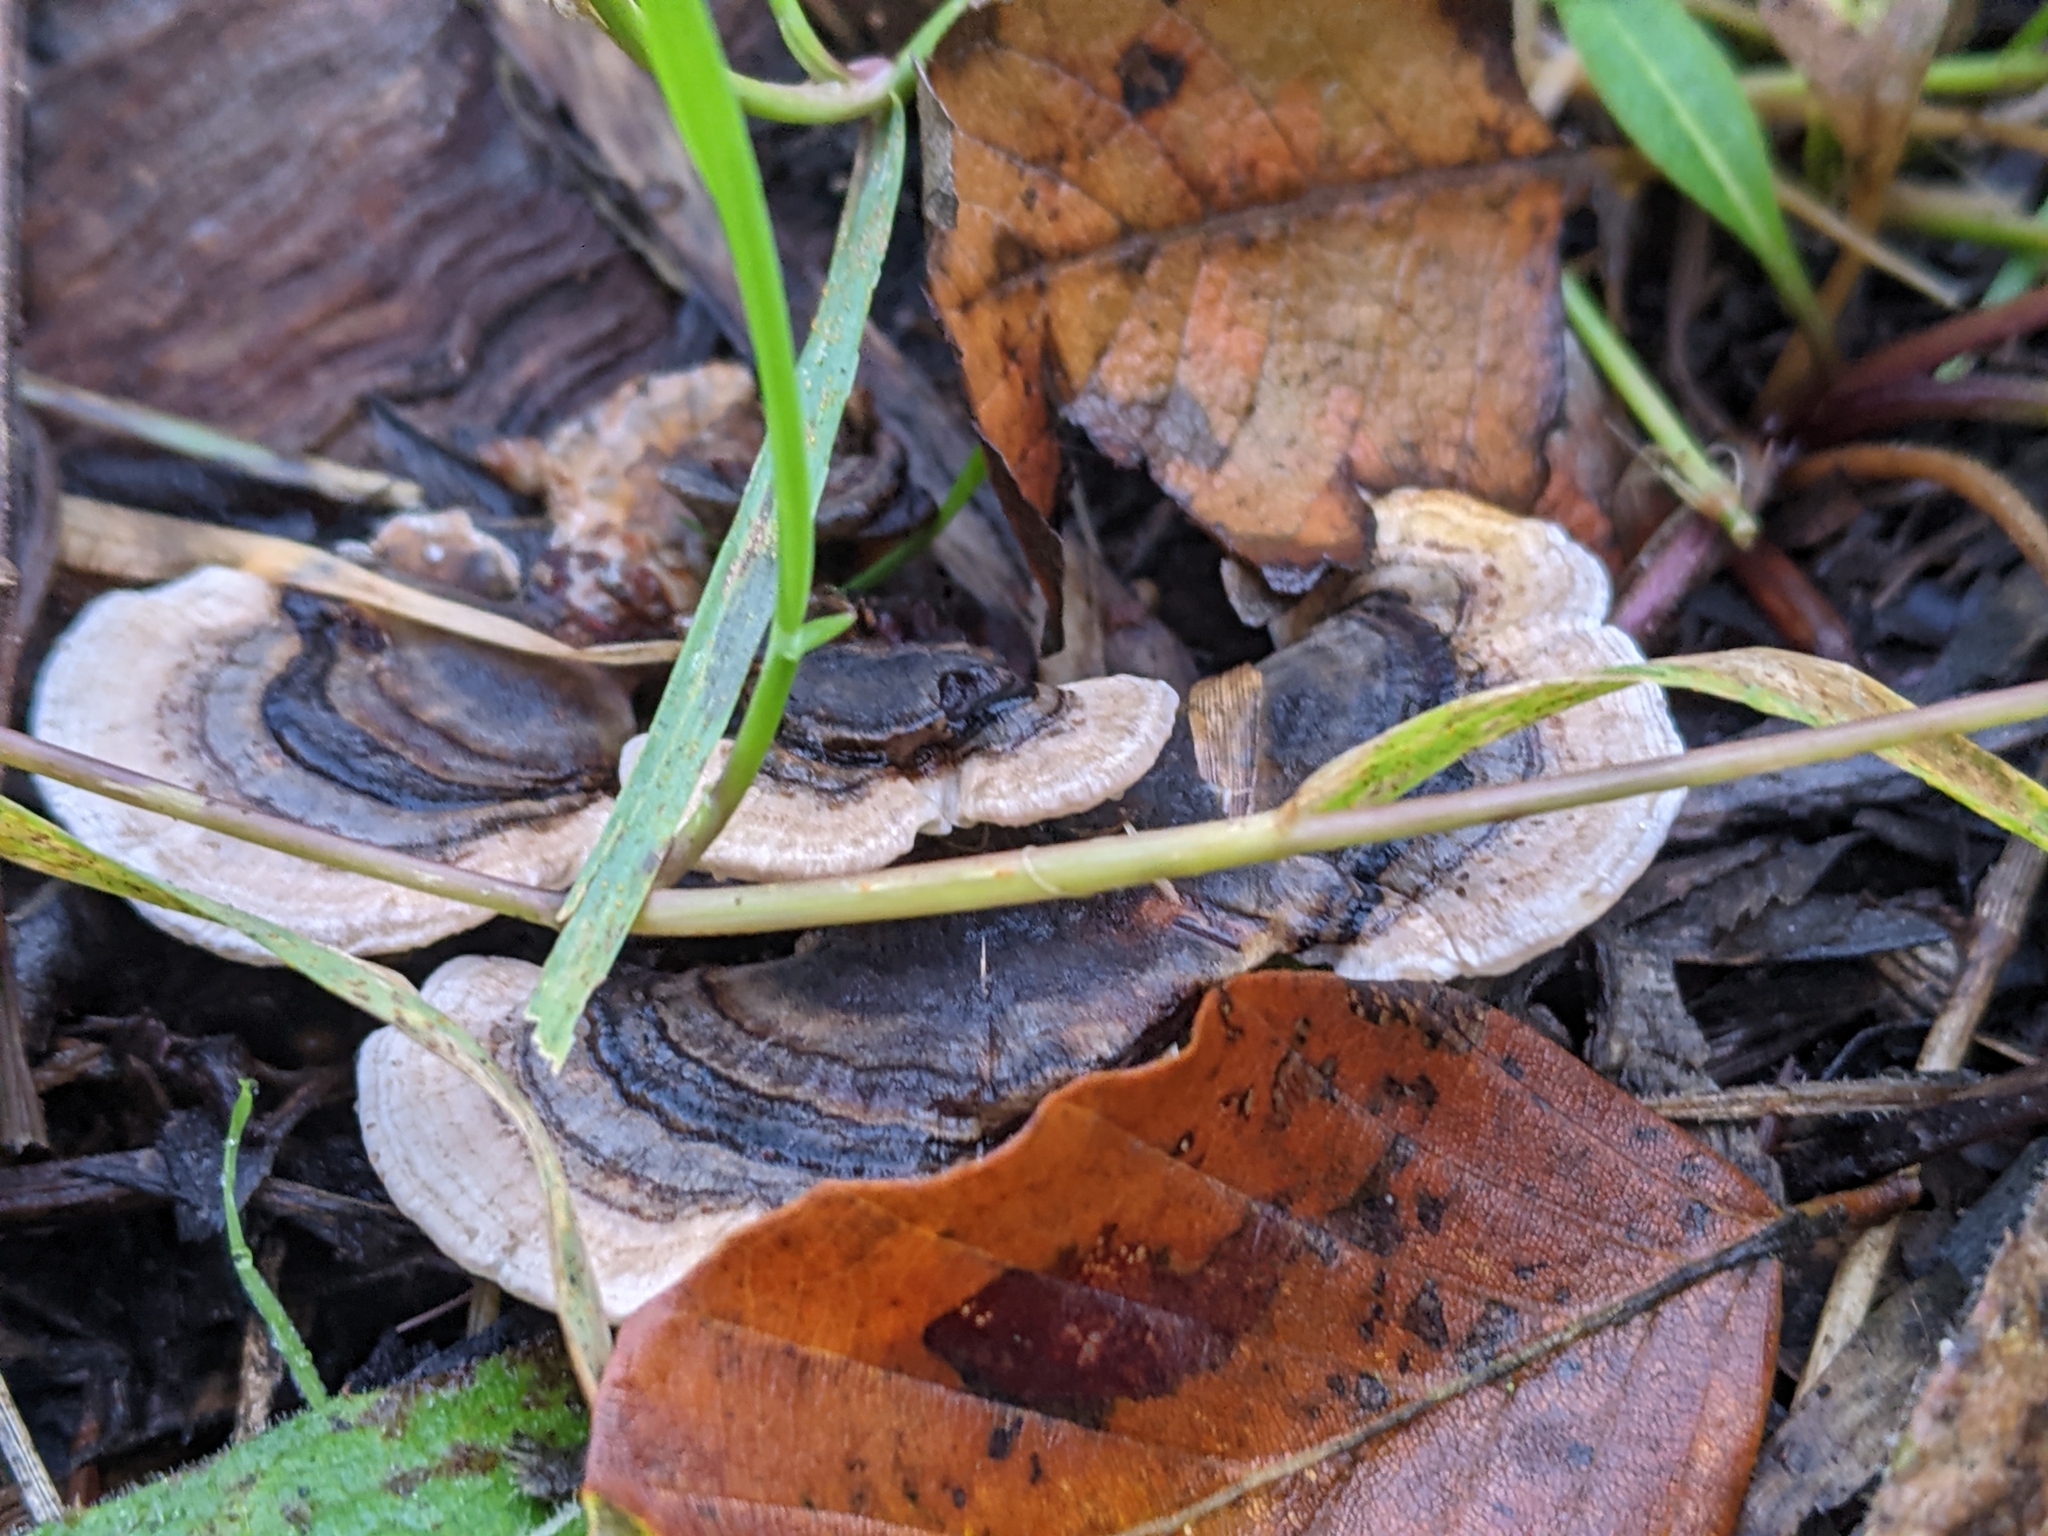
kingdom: Fungi
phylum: Basidiomycota
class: Agaricomycetes
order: Polyporales
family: Polyporaceae
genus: Trametes
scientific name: Trametes versicolor
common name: Turkeytail
